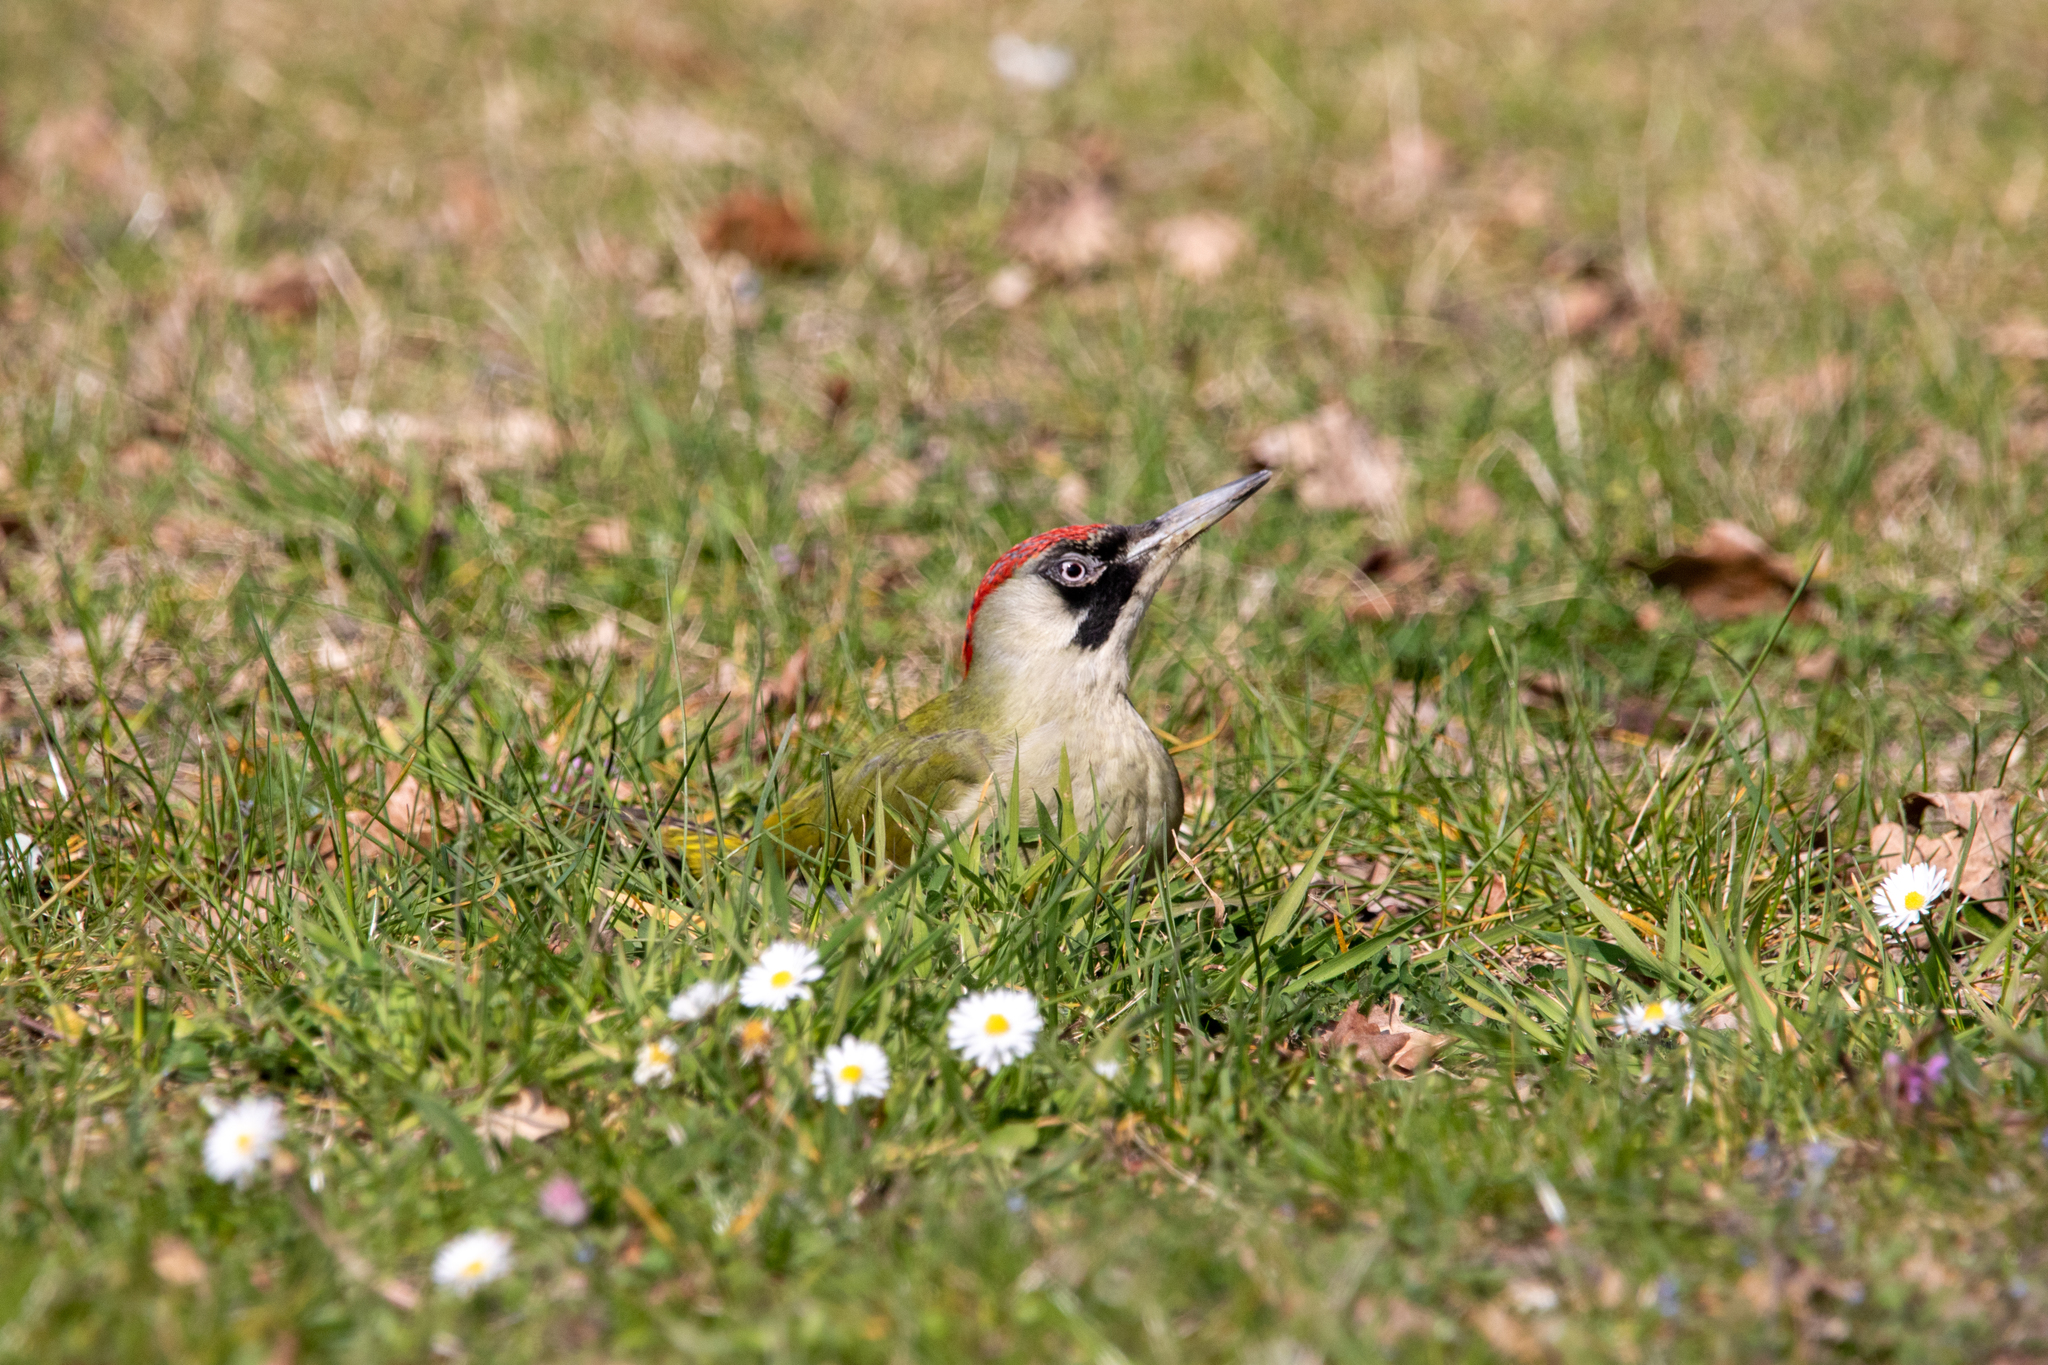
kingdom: Animalia
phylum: Chordata
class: Aves
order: Piciformes
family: Picidae
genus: Picus
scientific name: Picus viridis
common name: European green woodpecker
